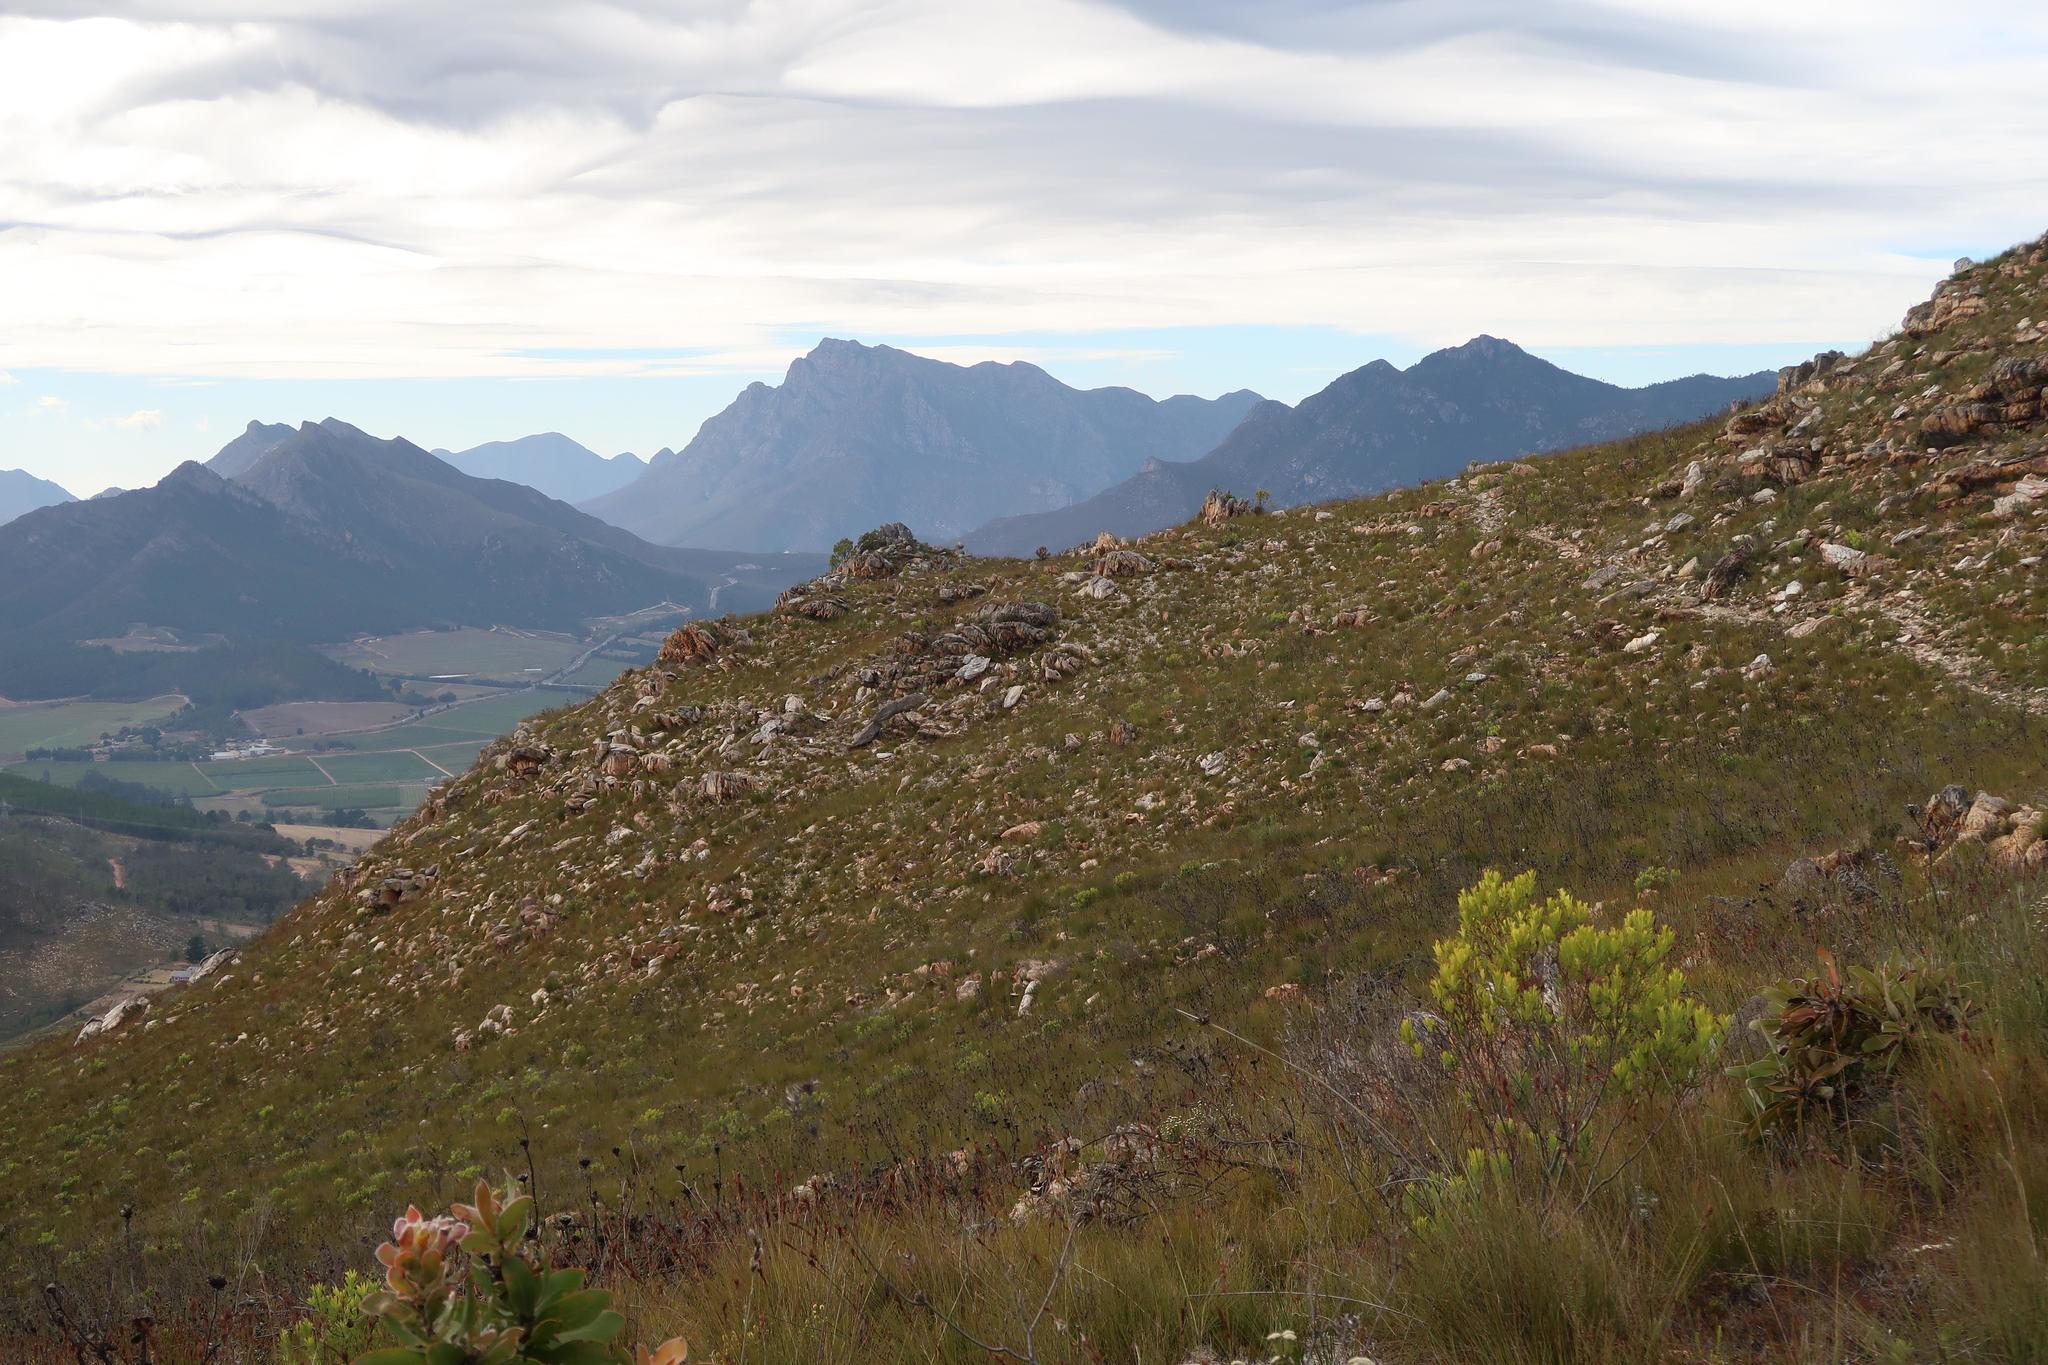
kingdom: Plantae
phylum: Tracheophyta
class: Magnoliopsida
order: Proteales
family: Proteaceae
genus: Leucadendron
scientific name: Leucadendron salignum
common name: Common sunshine conebush
